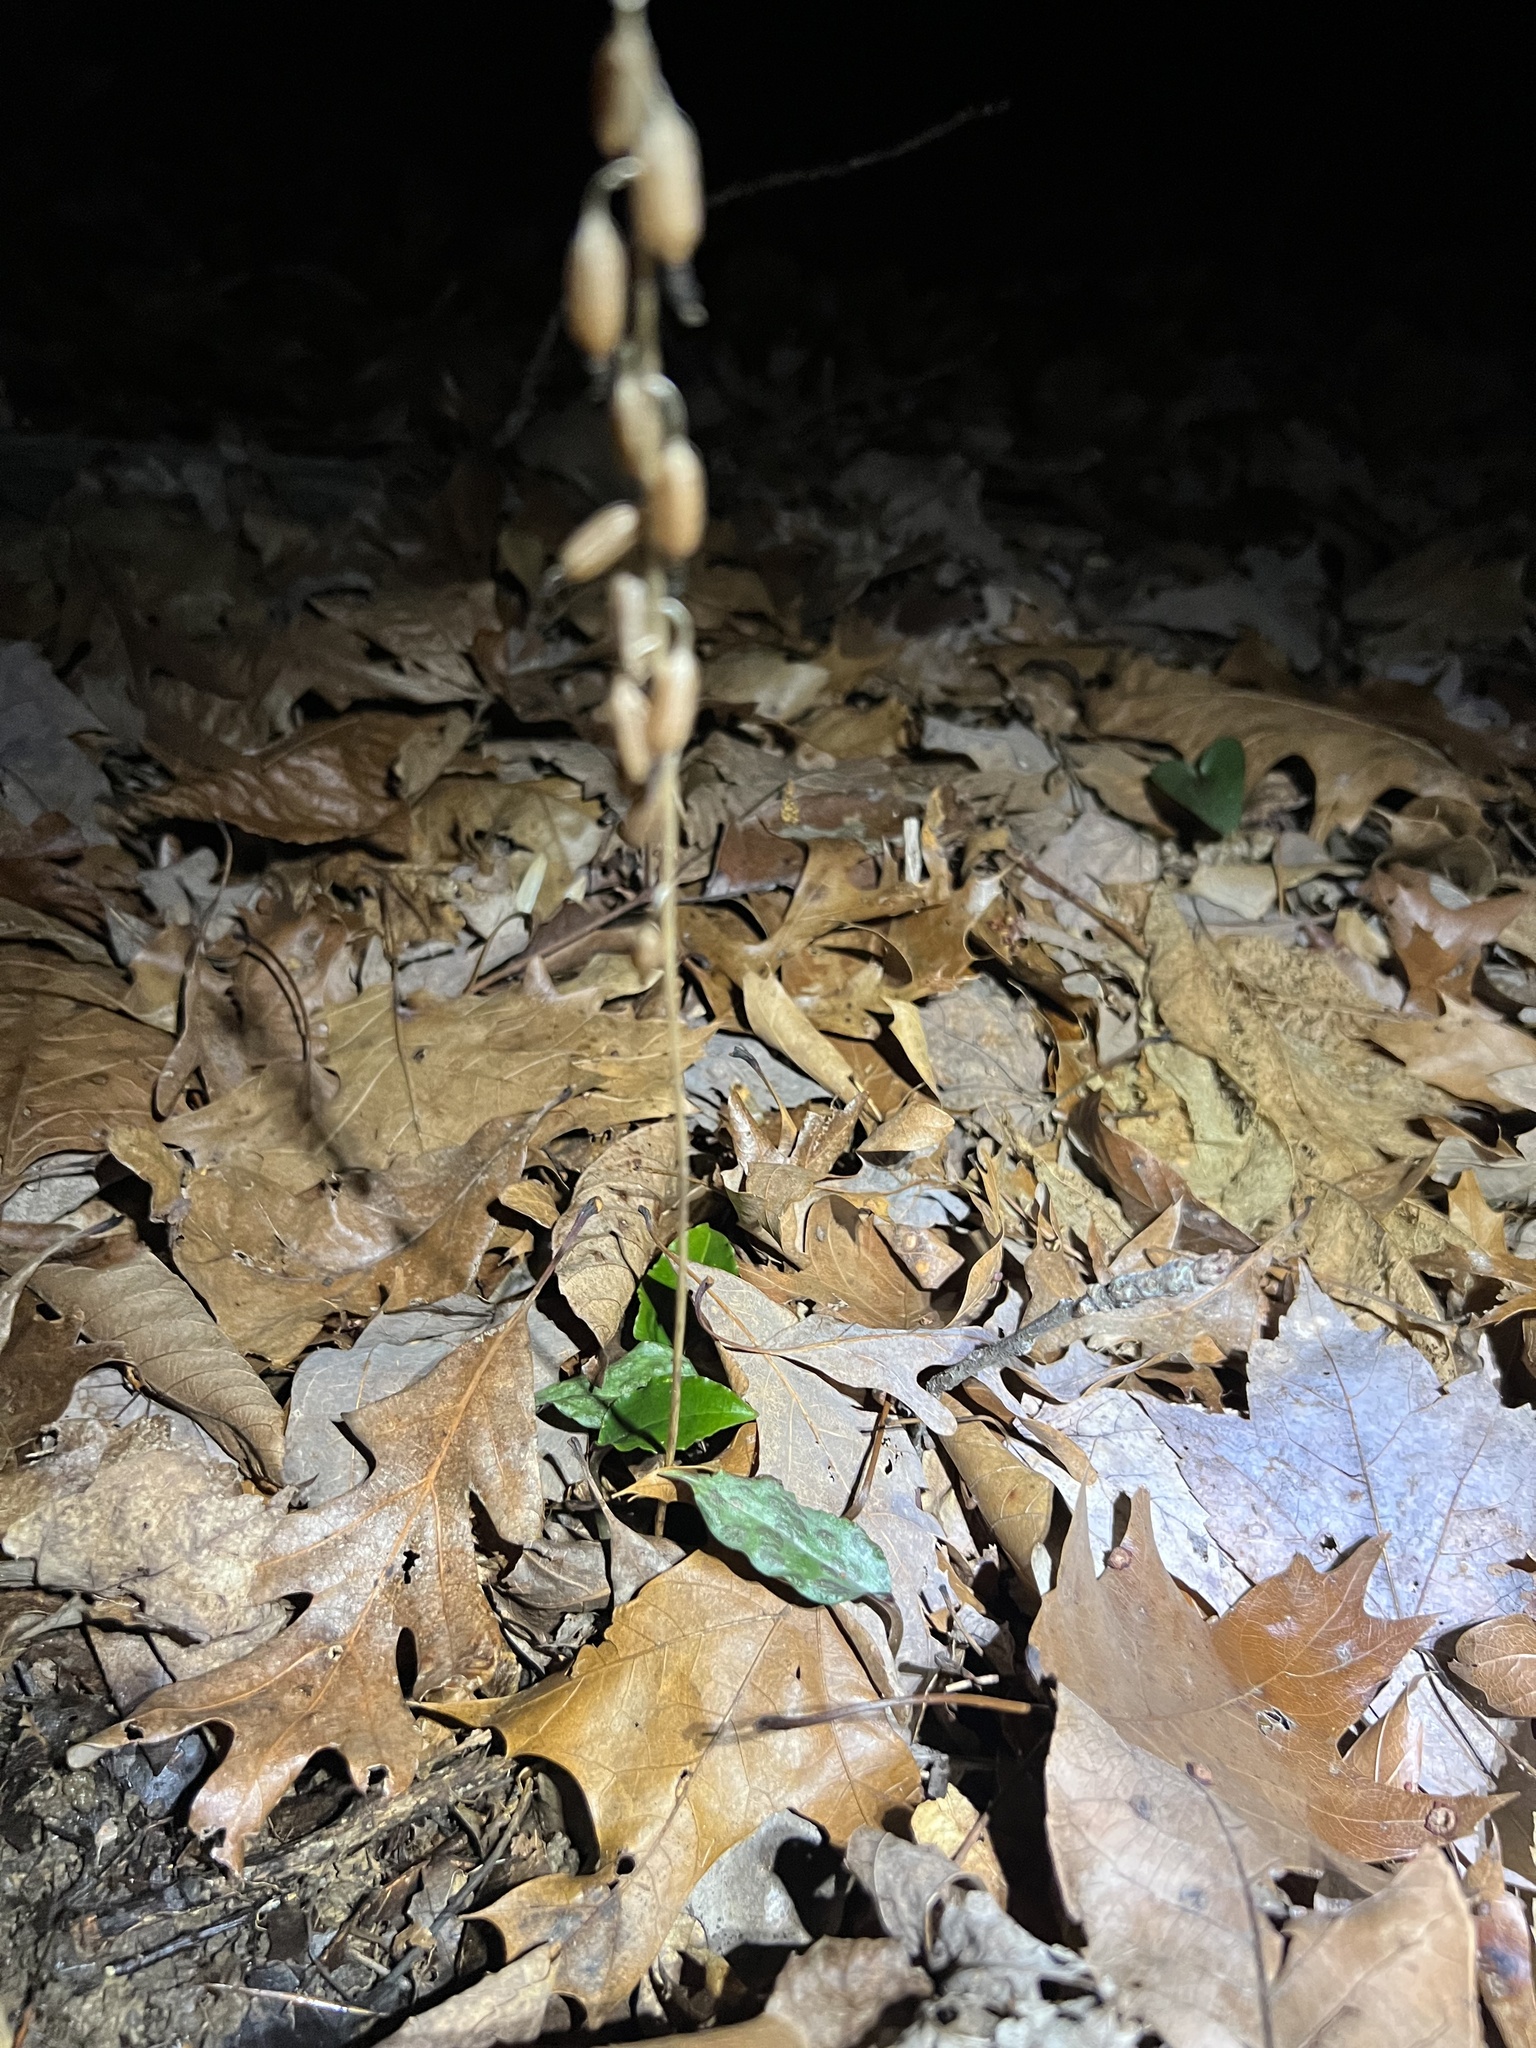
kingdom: Plantae
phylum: Tracheophyta
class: Liliopsida
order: Asparagales
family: Orchidaceae
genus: Tipularia
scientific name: Tipularia discolor
